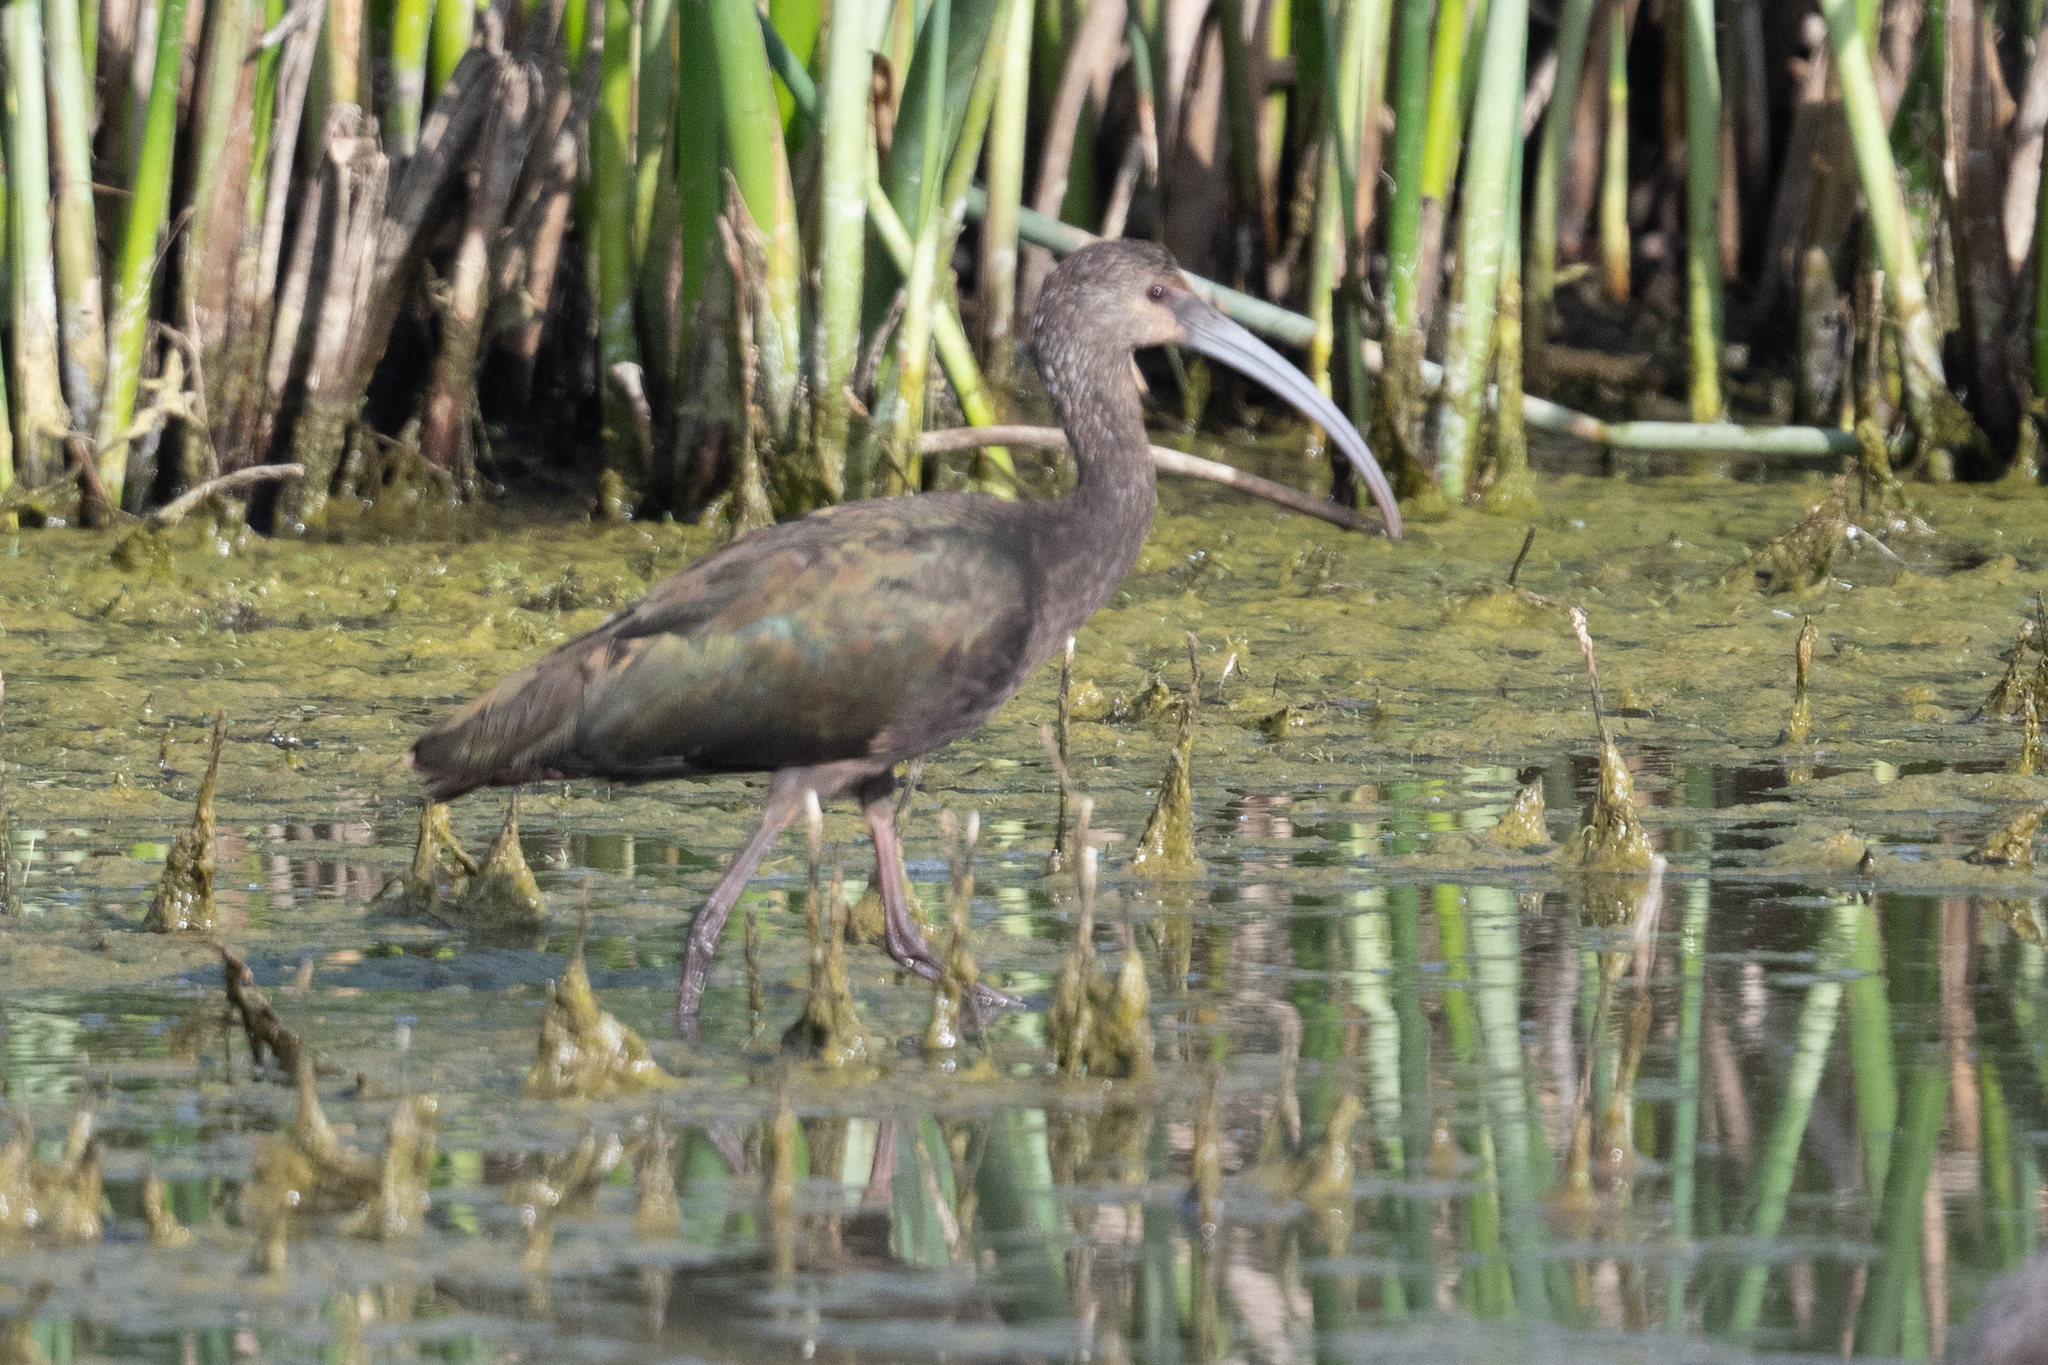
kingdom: Animalia
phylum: Chordata
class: Aves
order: Pelecaniformes
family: Threskiornithidae
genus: Plegadis
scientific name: Plegadis chihi
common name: White-faced ibis
